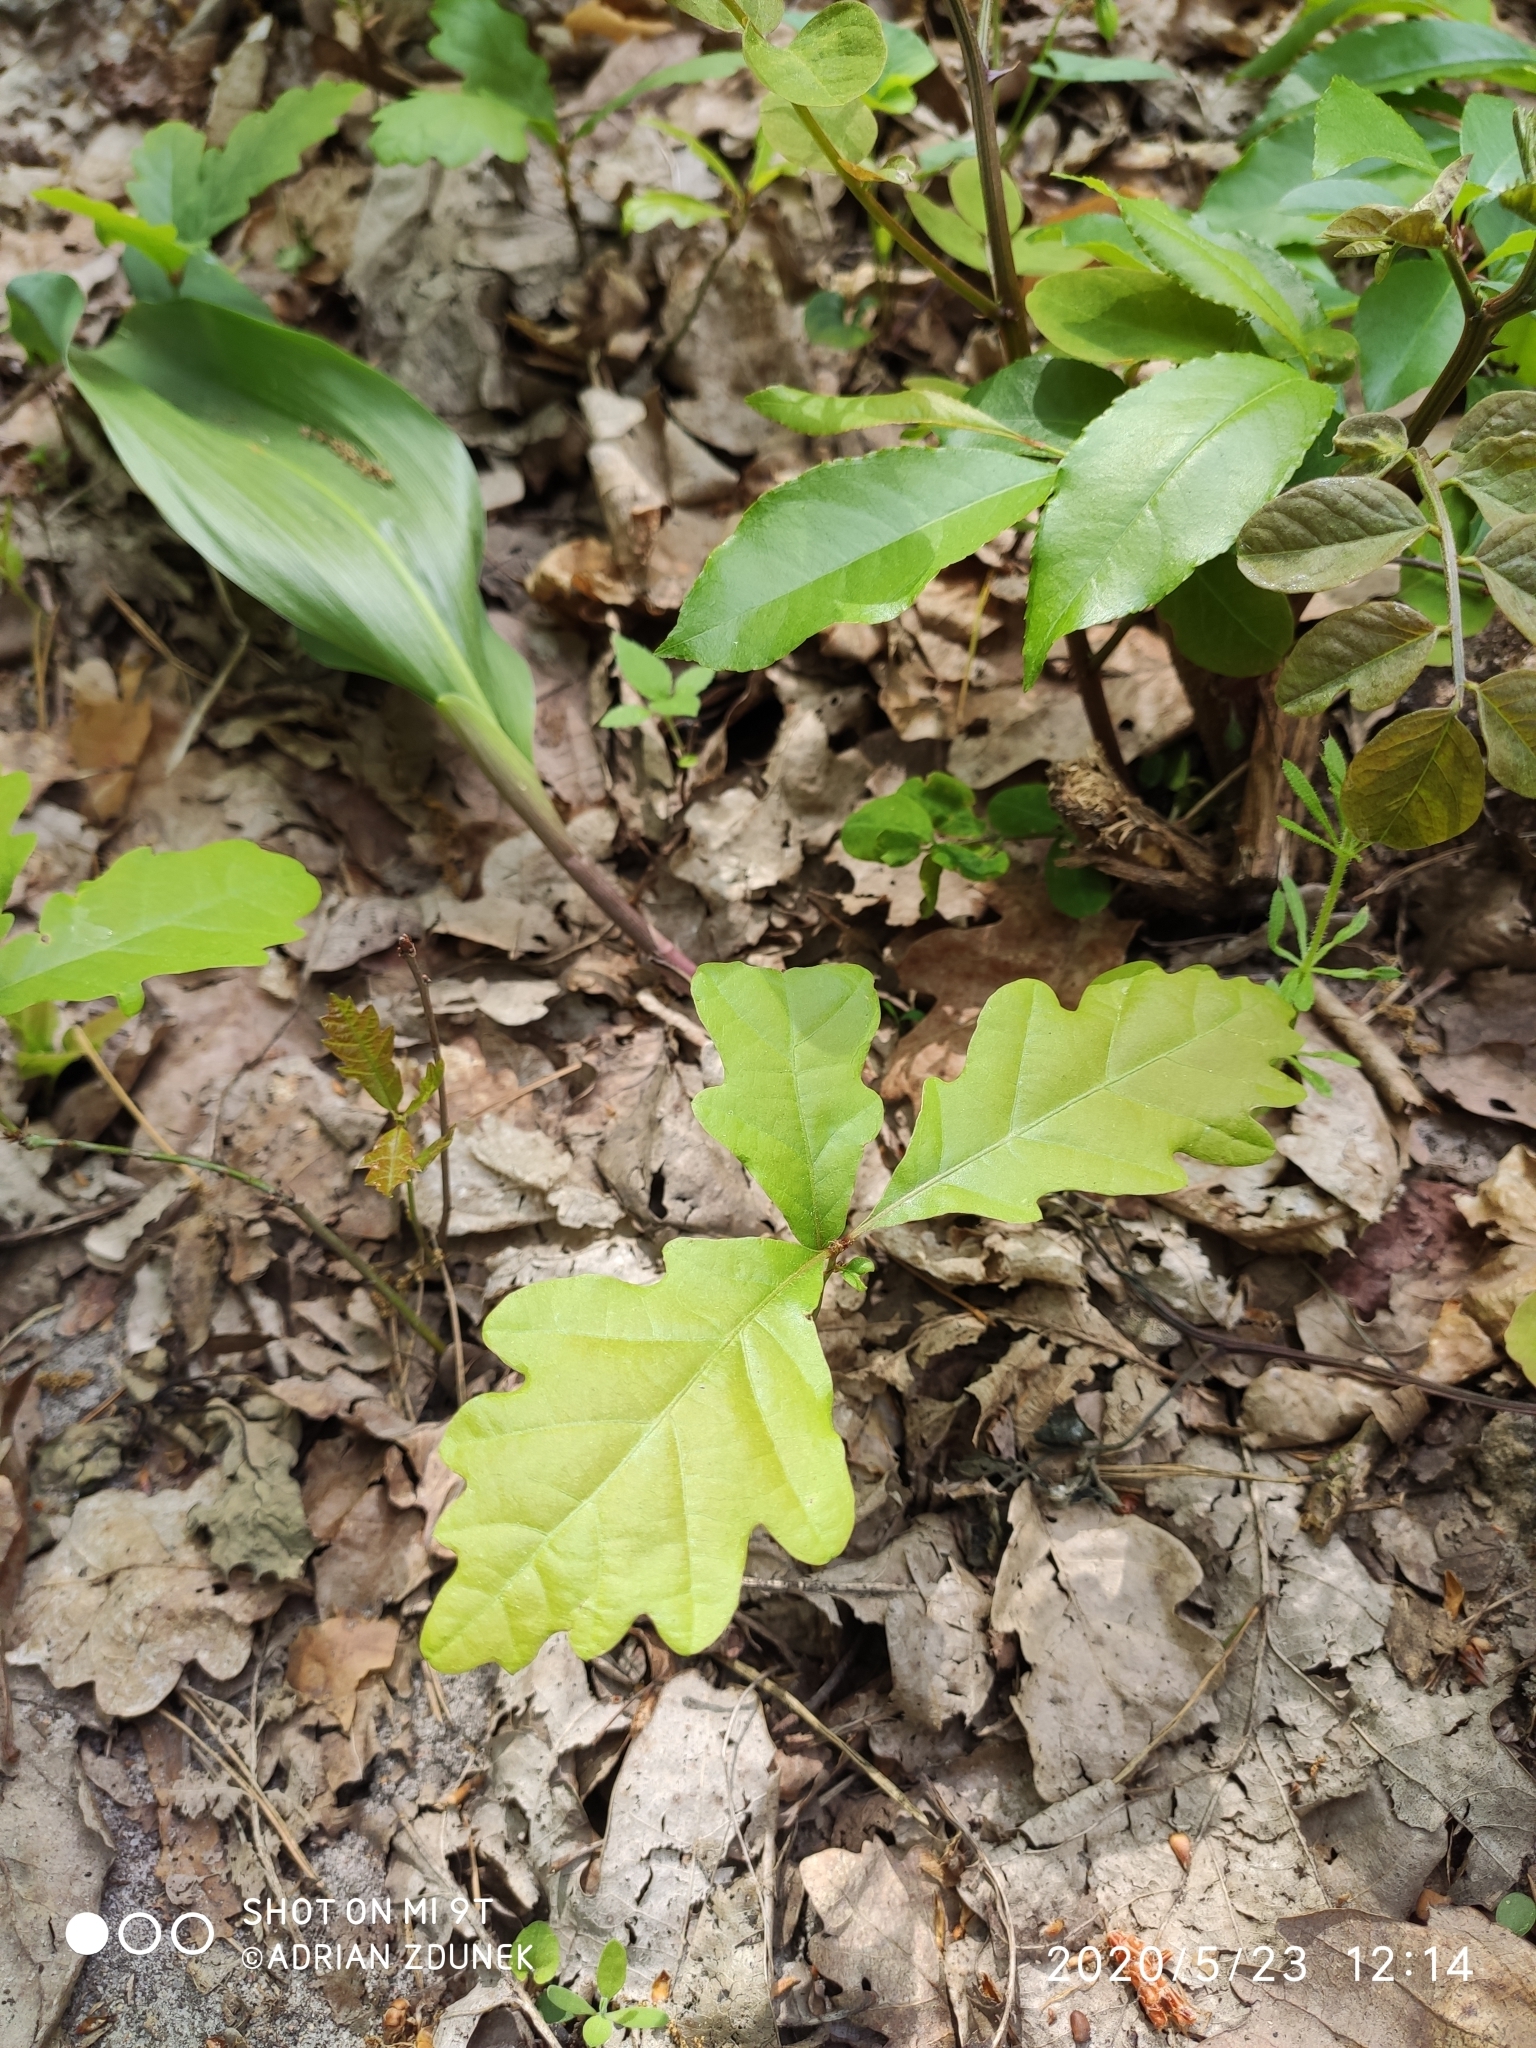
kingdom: Plantae
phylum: Tracheophyta
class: Magnoliopsida
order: Fagales
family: Fagaceae
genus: Quercus
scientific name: Quercus petraea
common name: Sessile oak
